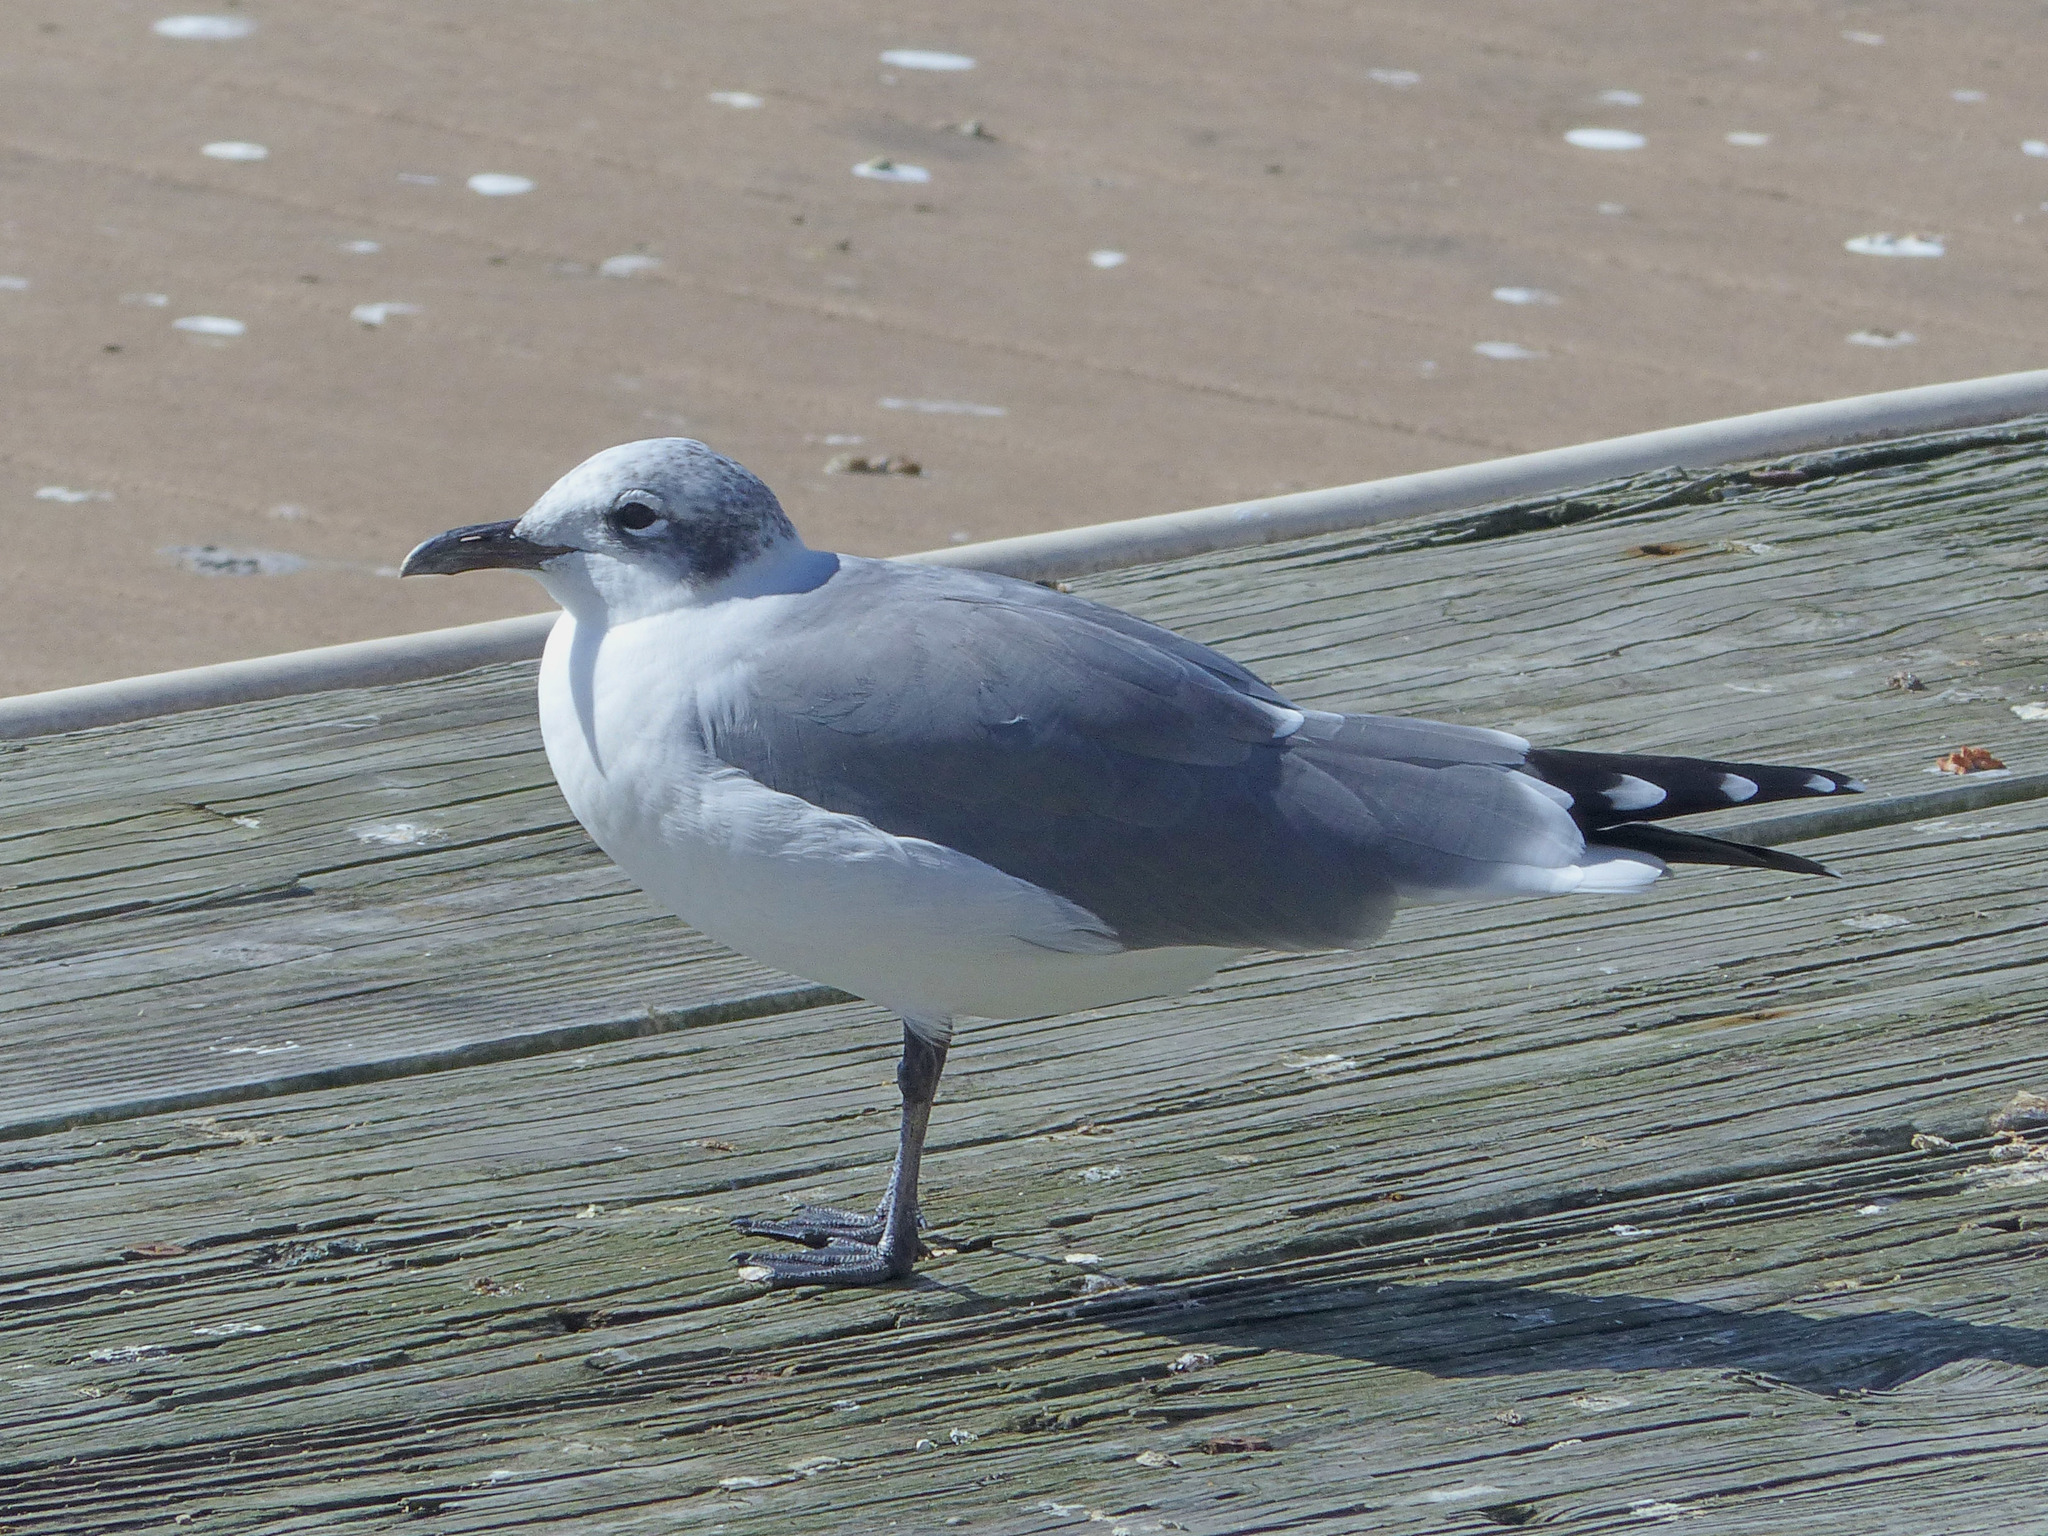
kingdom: Animalia
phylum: Chordata
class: Aves
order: Charadriiformes
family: Laridae
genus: Leucophaeus
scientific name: Leucophaeus atricilla
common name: Laughing gull
